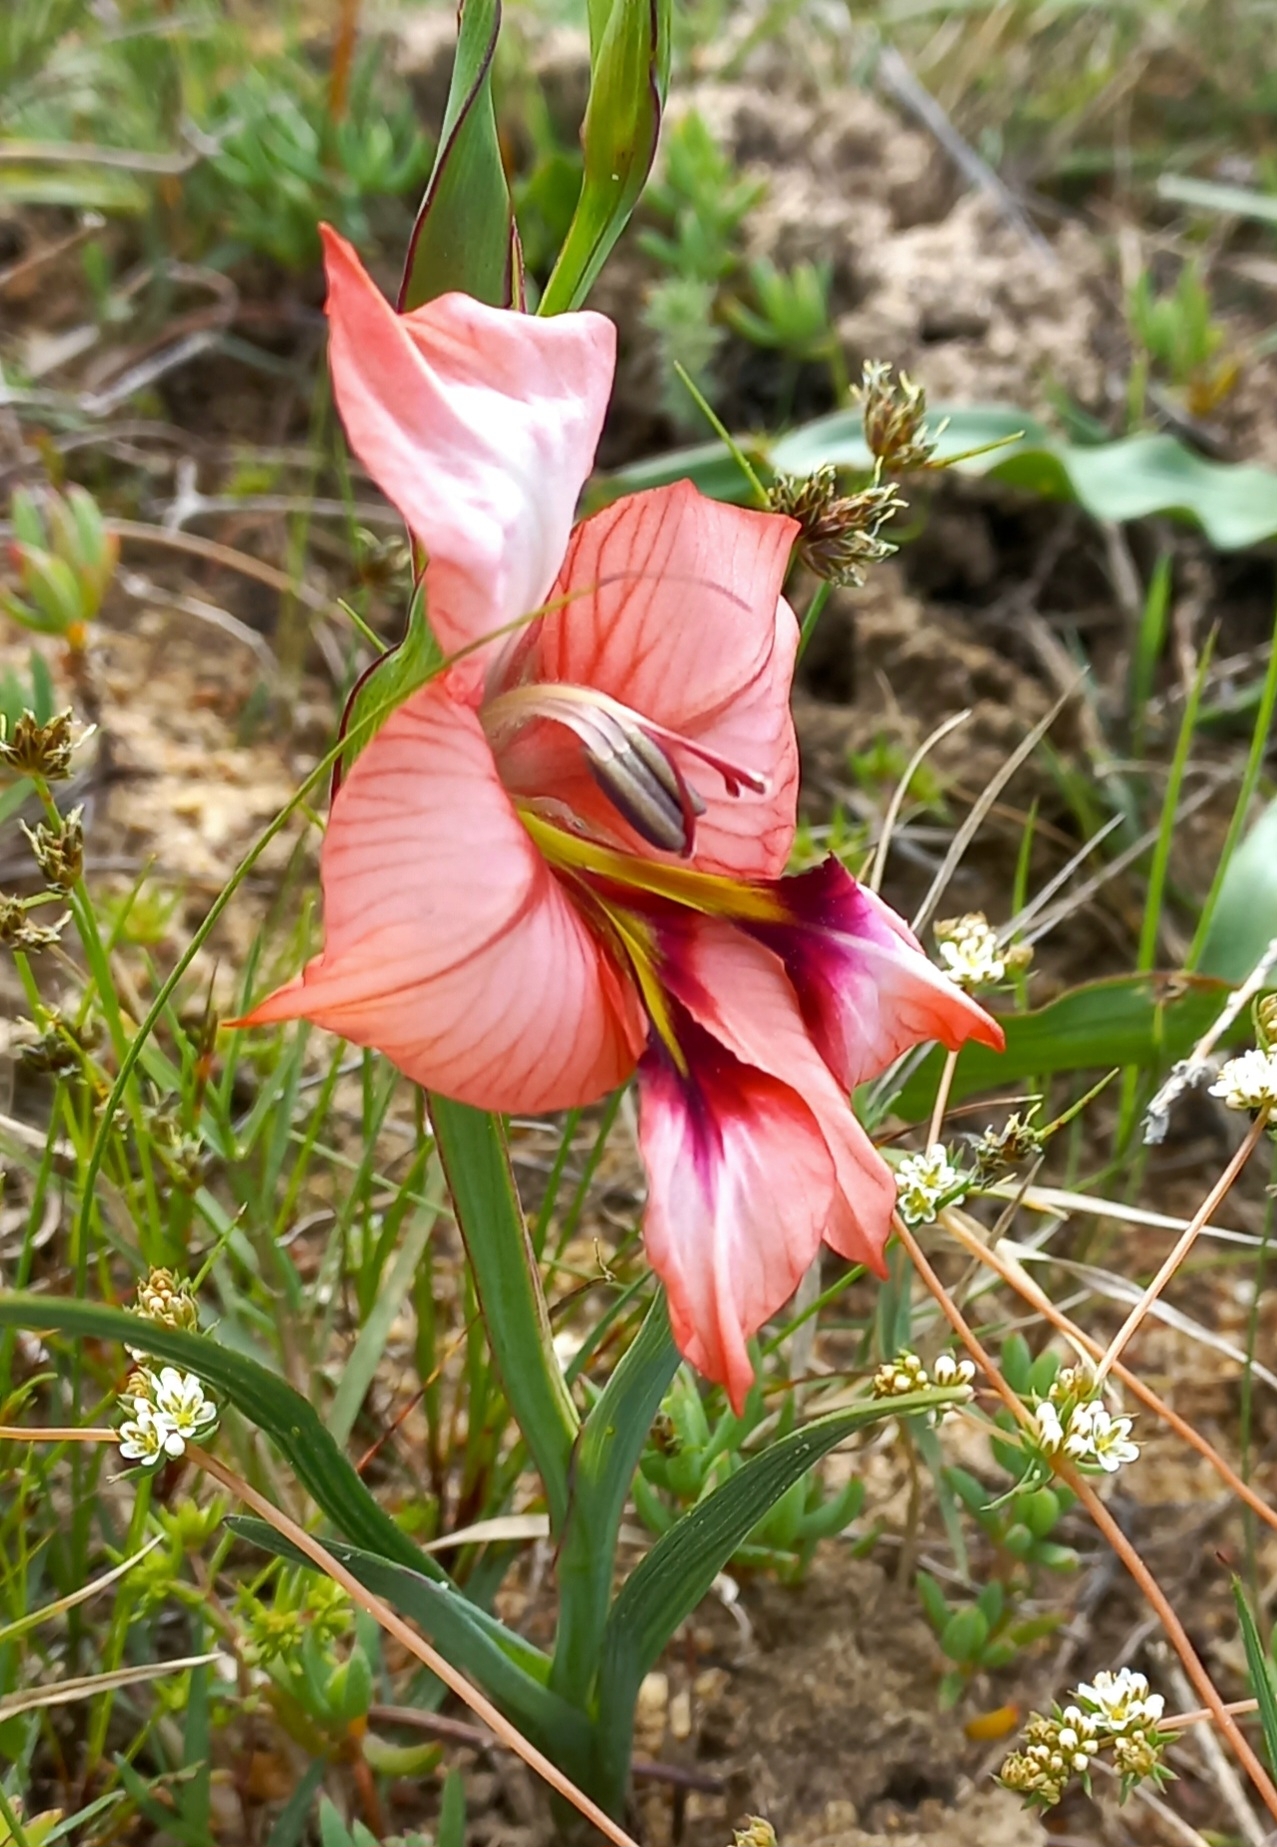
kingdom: Plantae
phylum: Tracheophyta
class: Liliopsida
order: Asparagales
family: Iridaceae
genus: Gladiolus
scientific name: Gladiolus meliusculus
